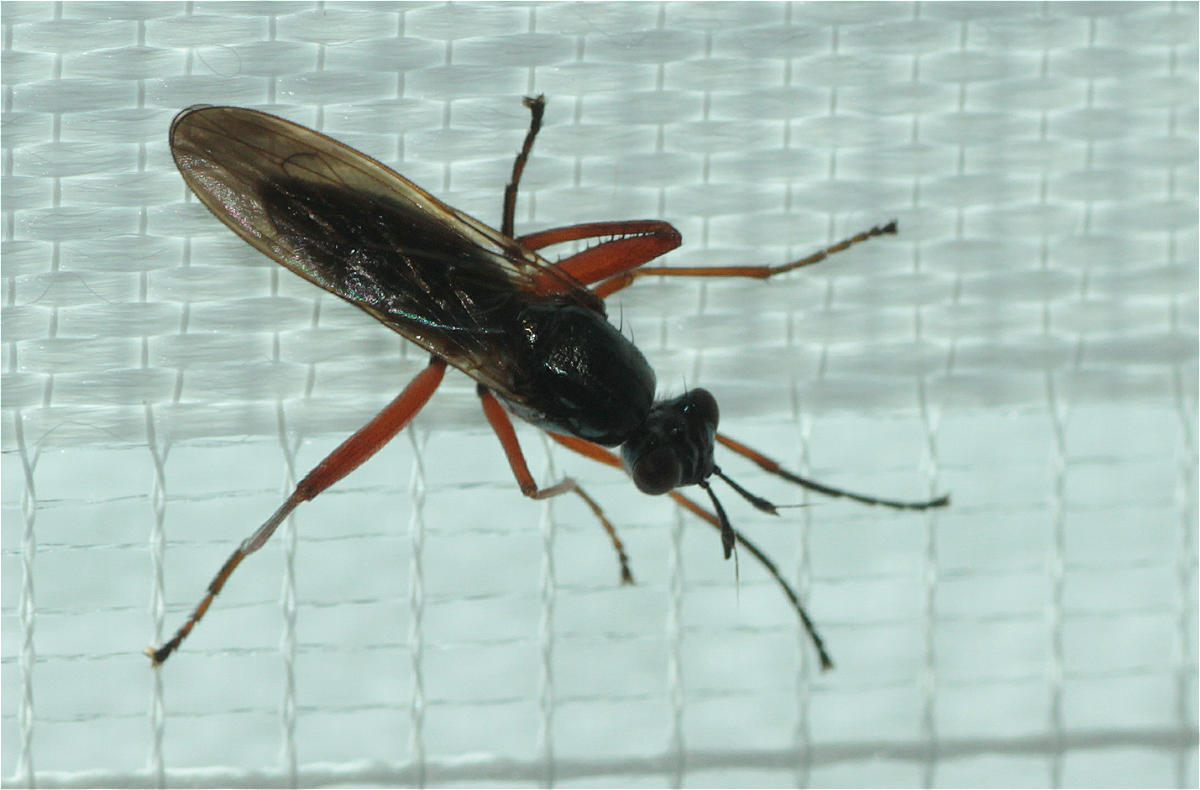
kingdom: Animalia
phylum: Arthropoda
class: Insecta
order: Diptera
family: Sciomyzidae
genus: Sepedon
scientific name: Sepedon sphegea
